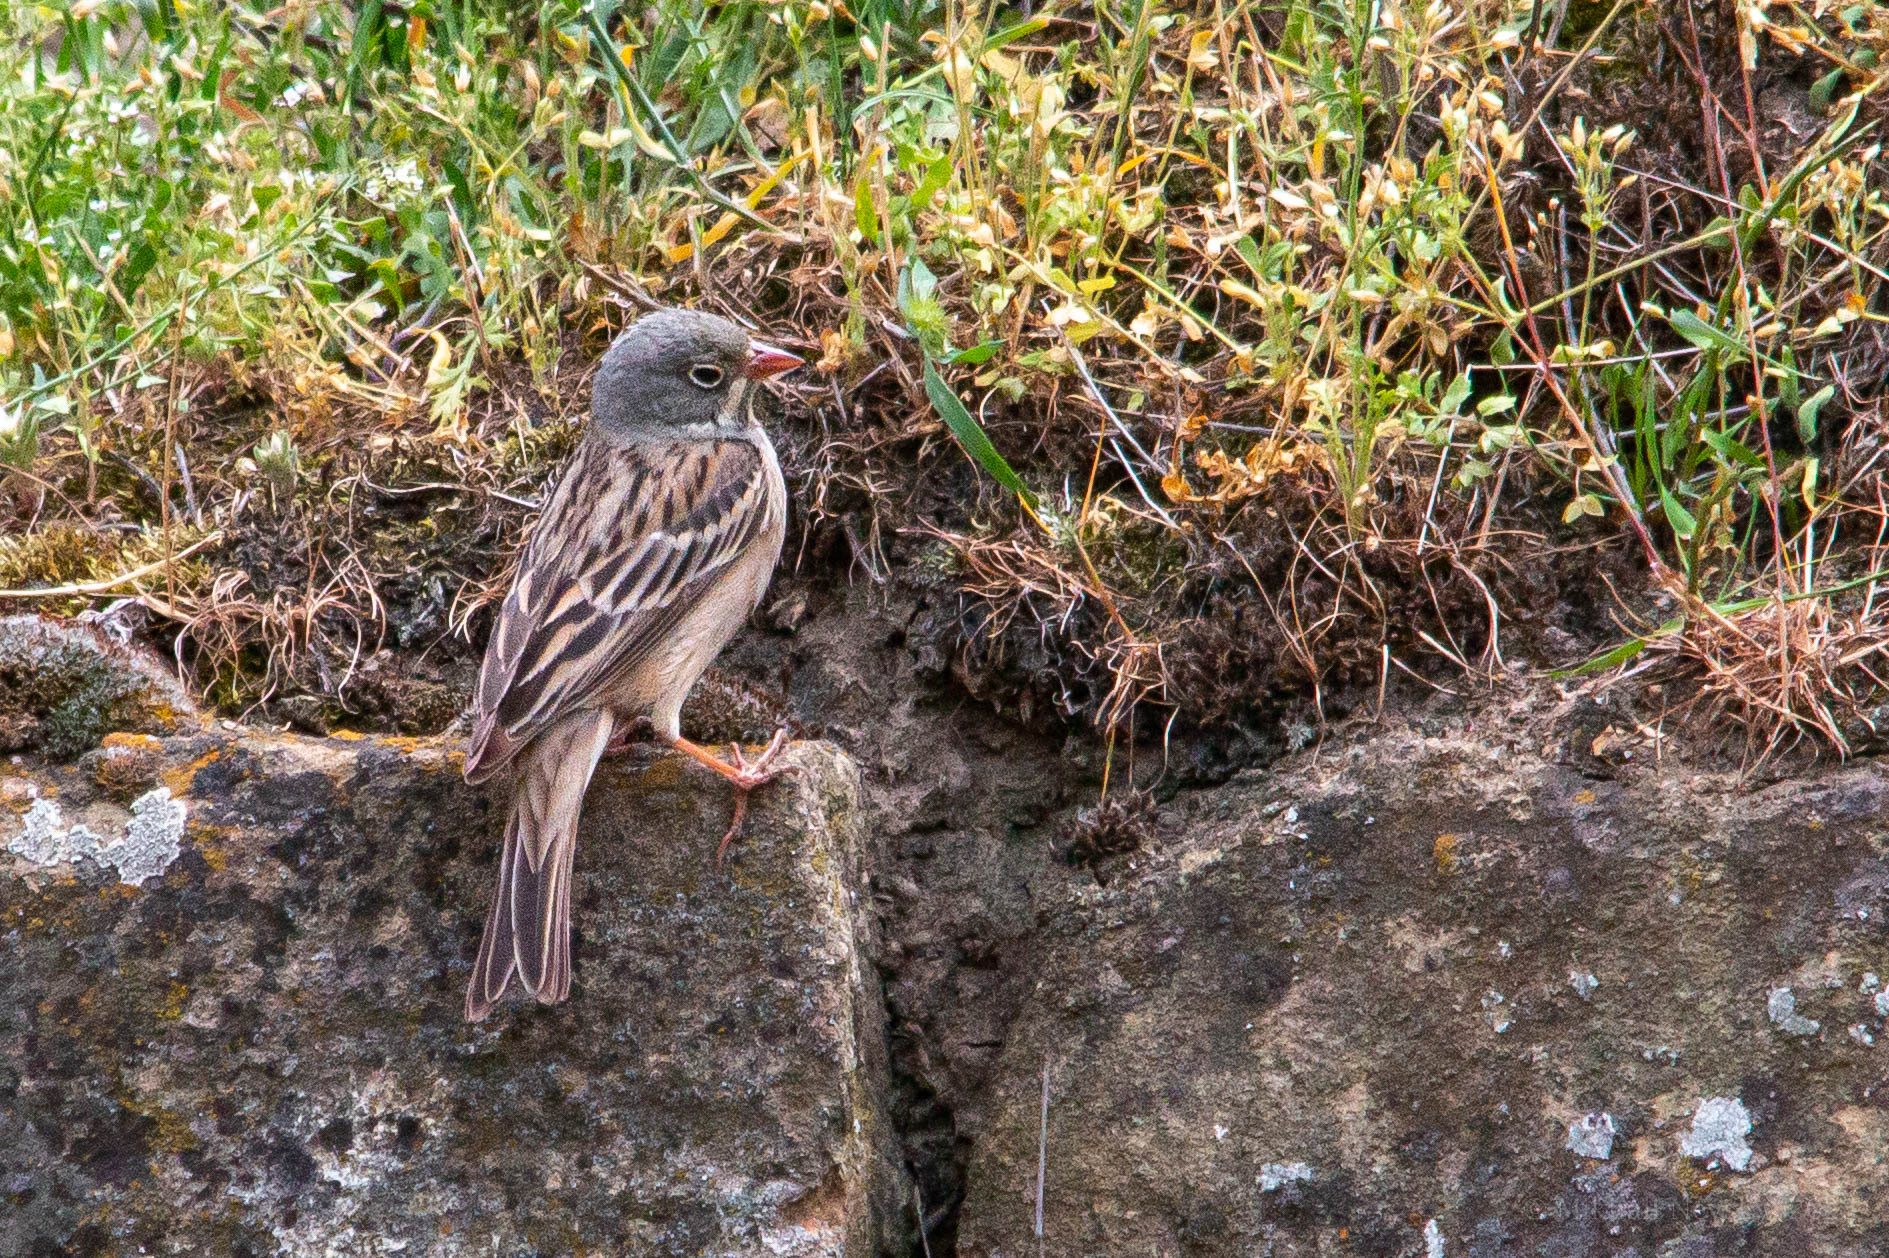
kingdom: Animalia
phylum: Chordata
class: Aves
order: Passeriformes
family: Emberizidae
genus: Emberiza
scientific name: Emberiza hortulana
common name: Ortolan bunting
